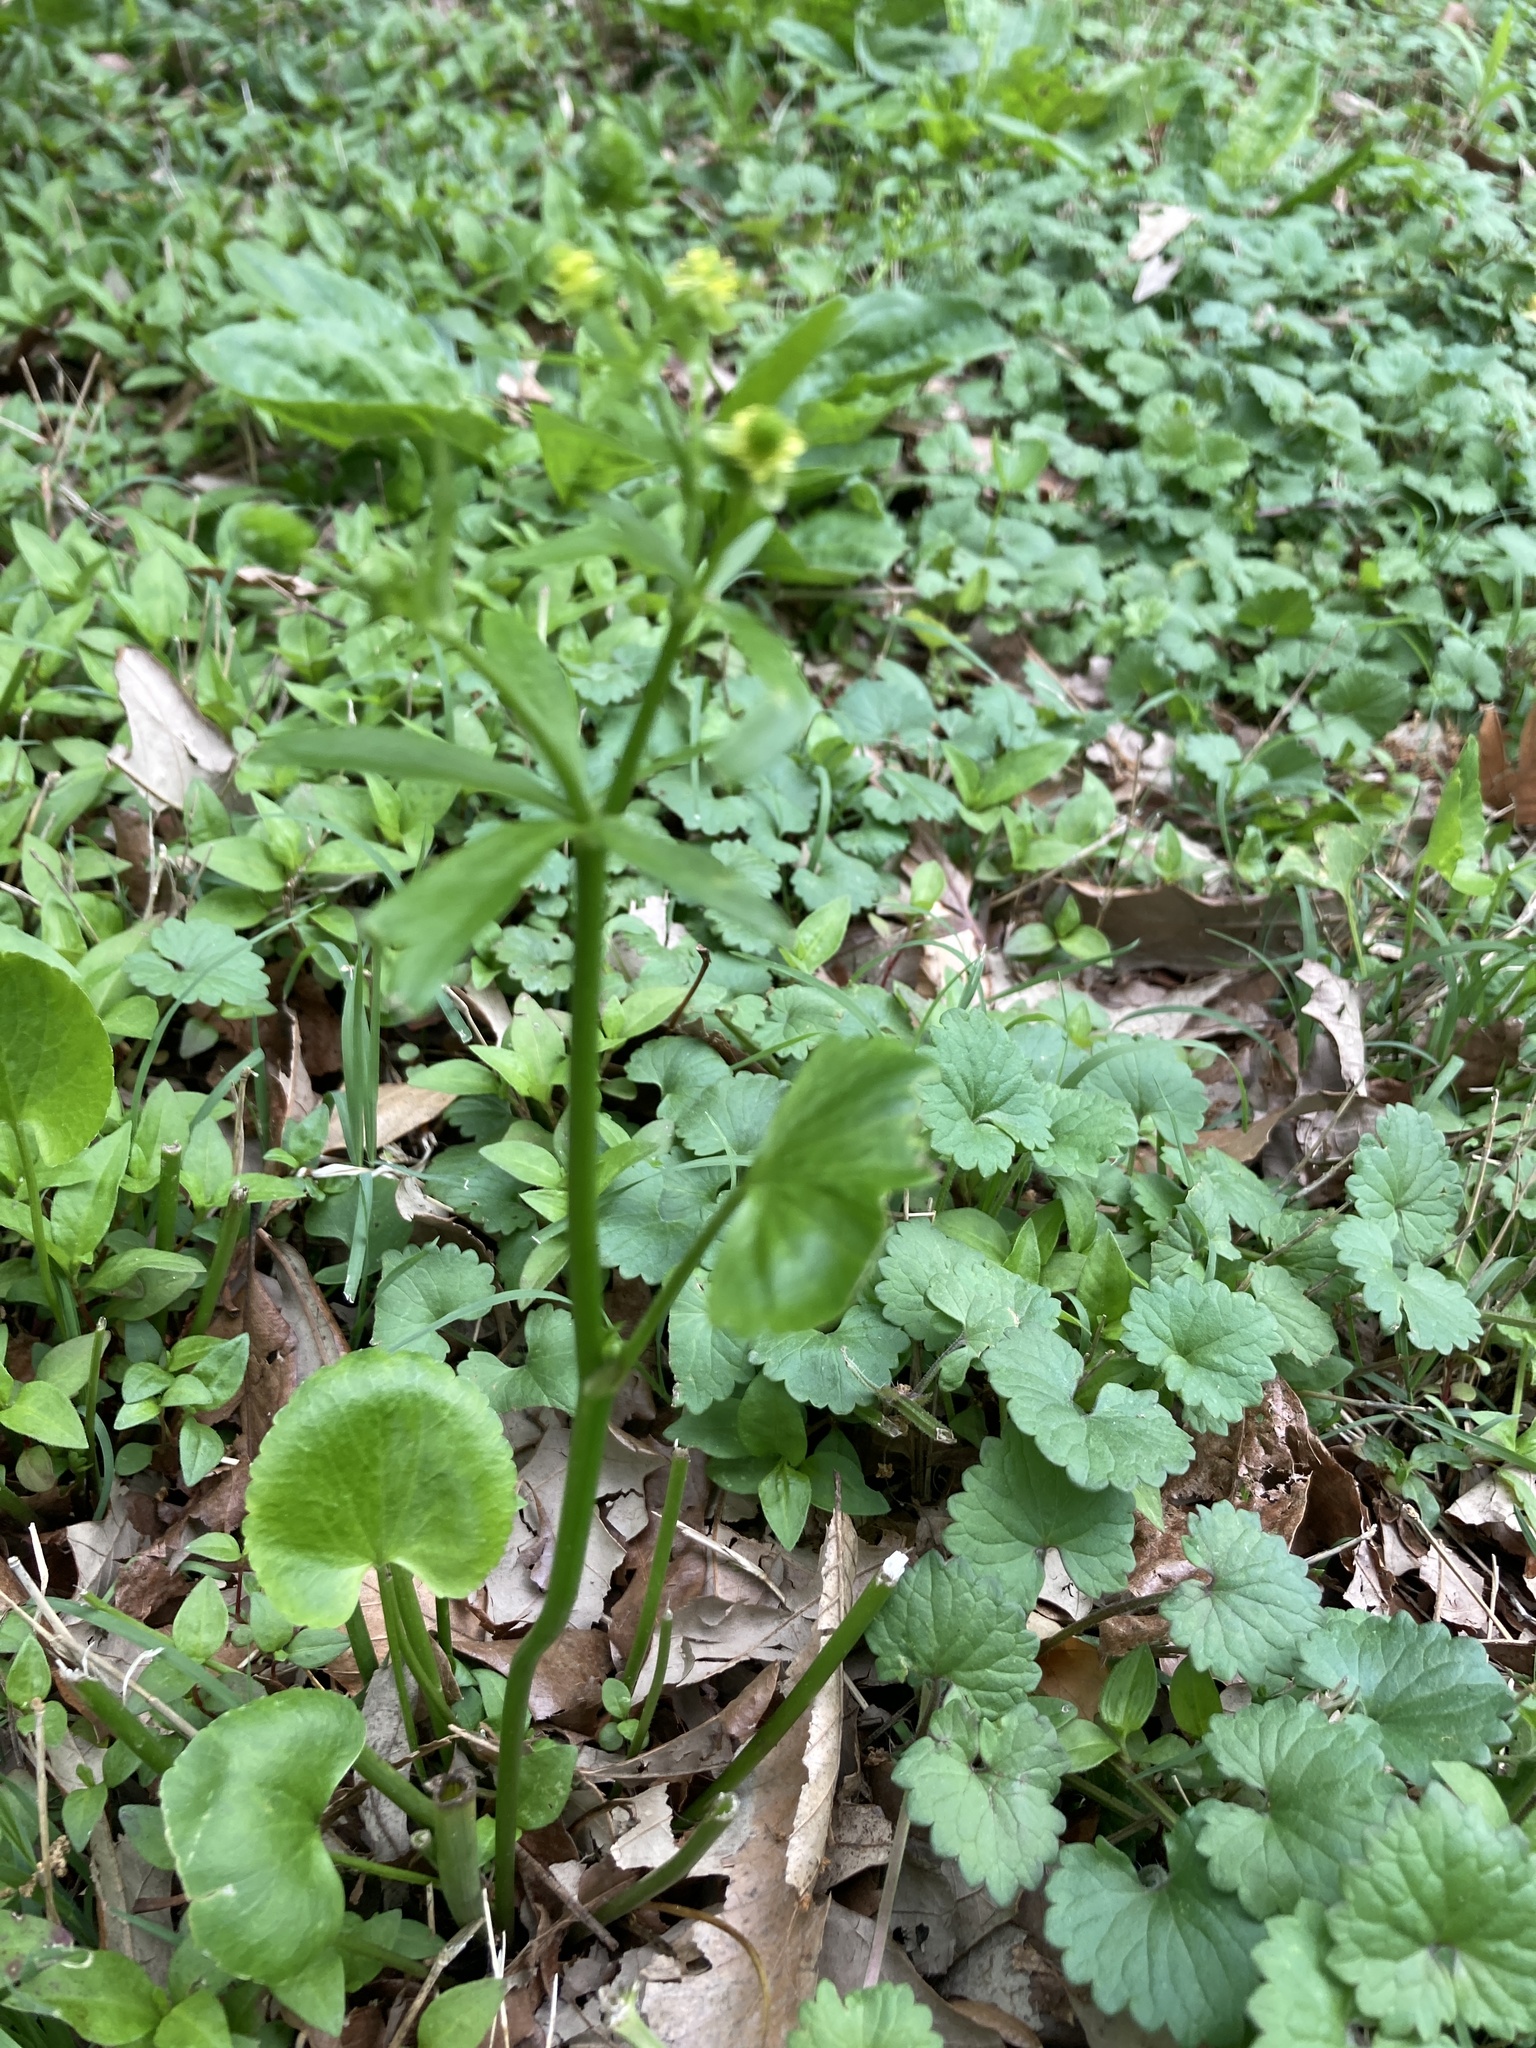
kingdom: Plantae
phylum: Tracheophyta
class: Magnoliopsida
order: Ranunculales
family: Ranunculaceae
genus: Ranunculus
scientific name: Ranunculus abortivus
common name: Early wood buttercup
